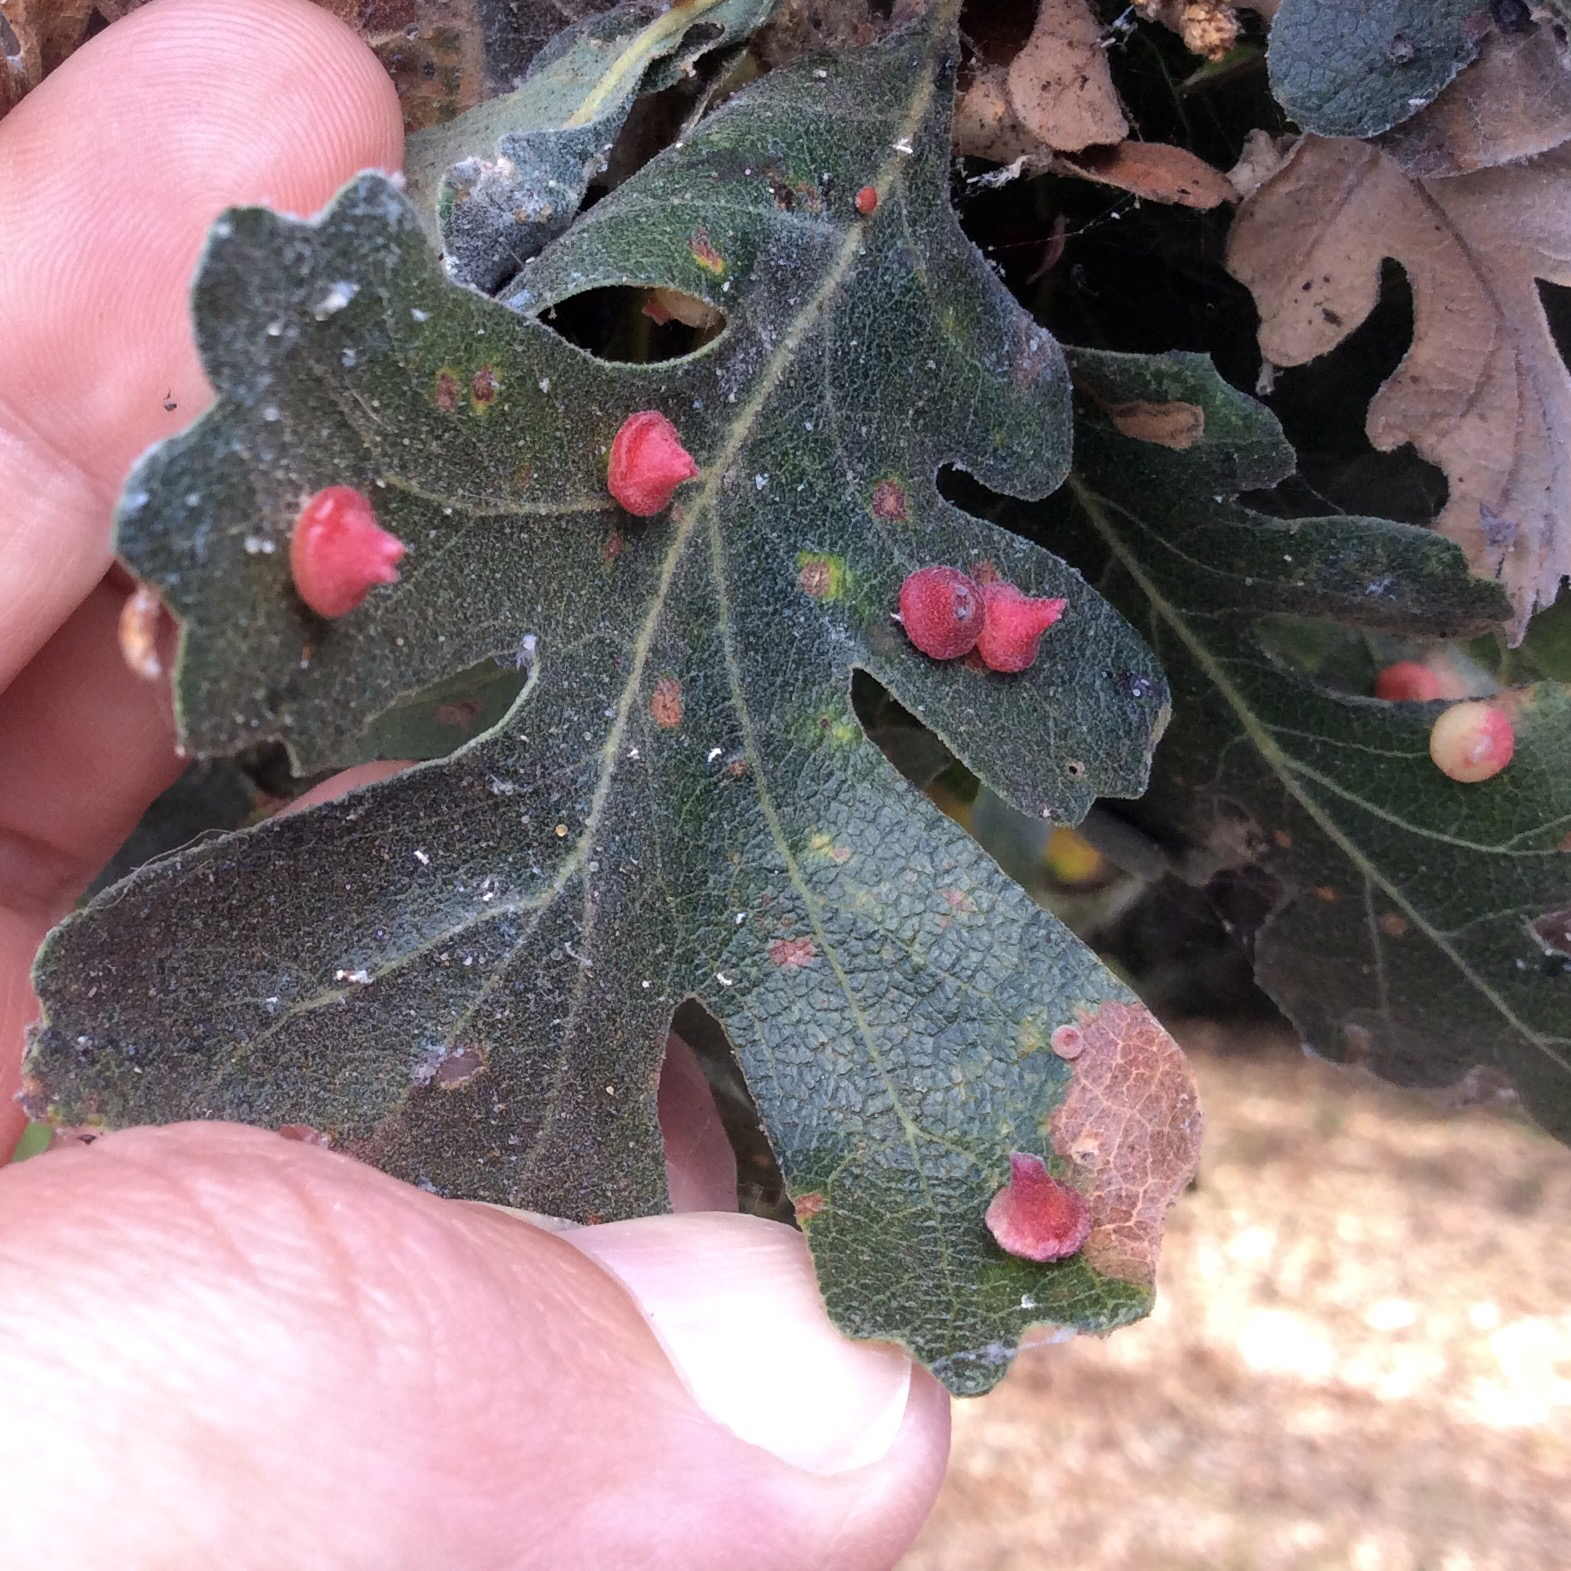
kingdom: Animalia
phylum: Arthropoda
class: Insecta
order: Hymenoptera
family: Cynipidae
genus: Andricus
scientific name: Andricus
